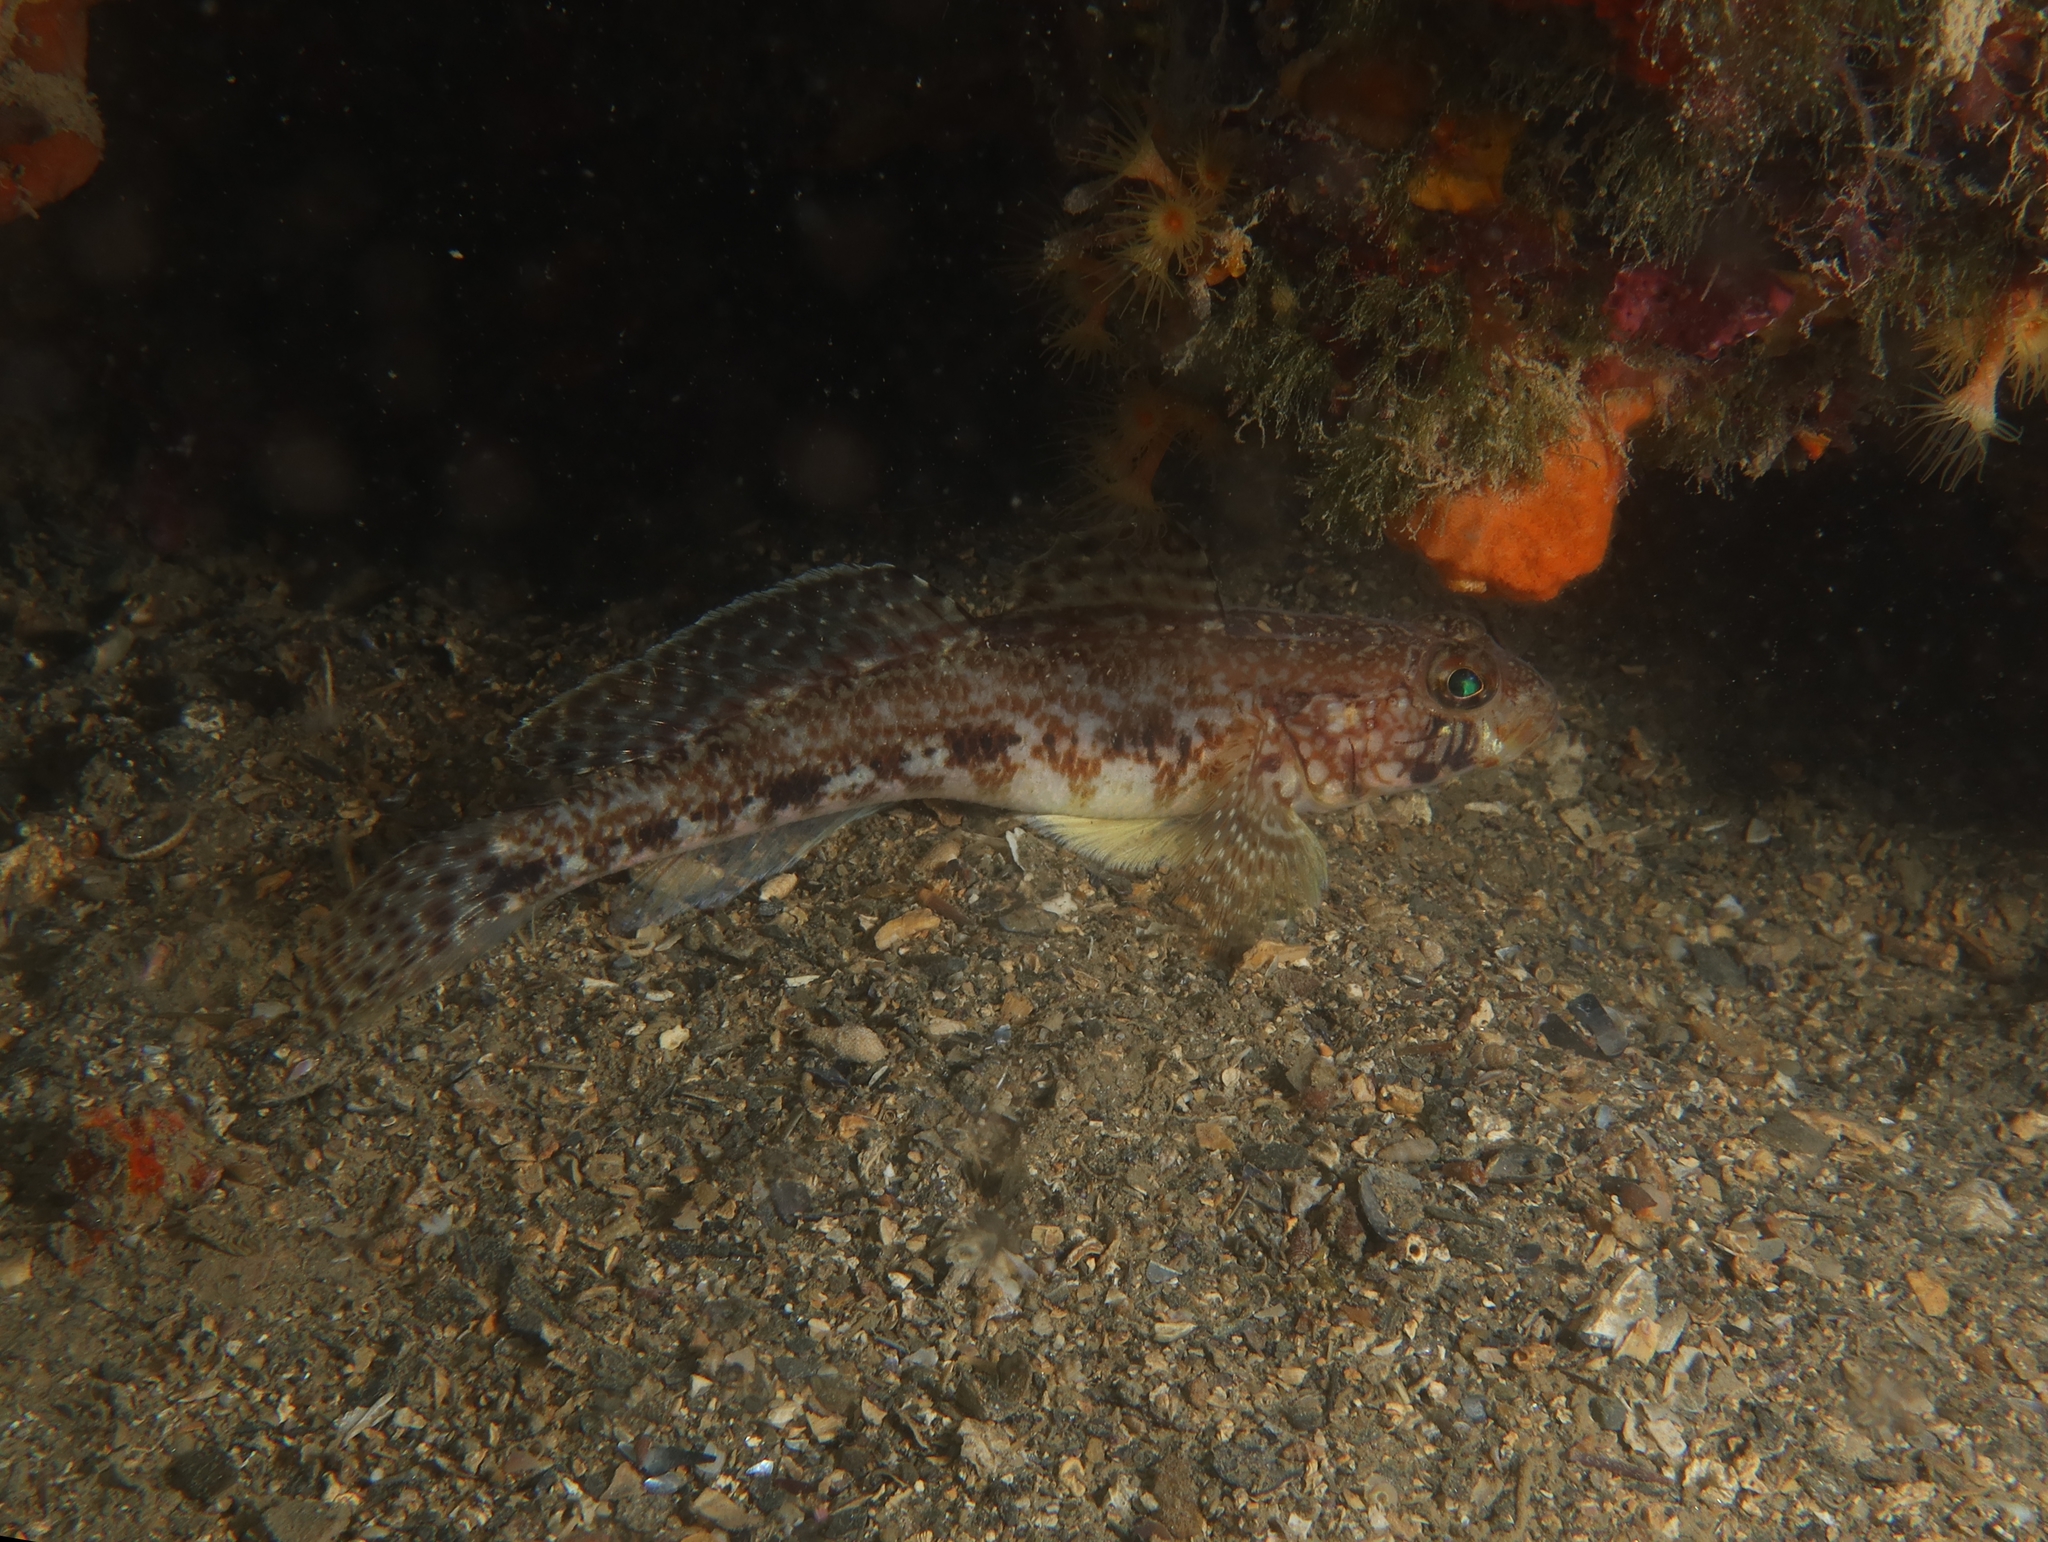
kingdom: Animalia
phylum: Chordata
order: Perciformes
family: Gobiidae
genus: Gobius
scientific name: Gobius geniporus
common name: Slender goby
